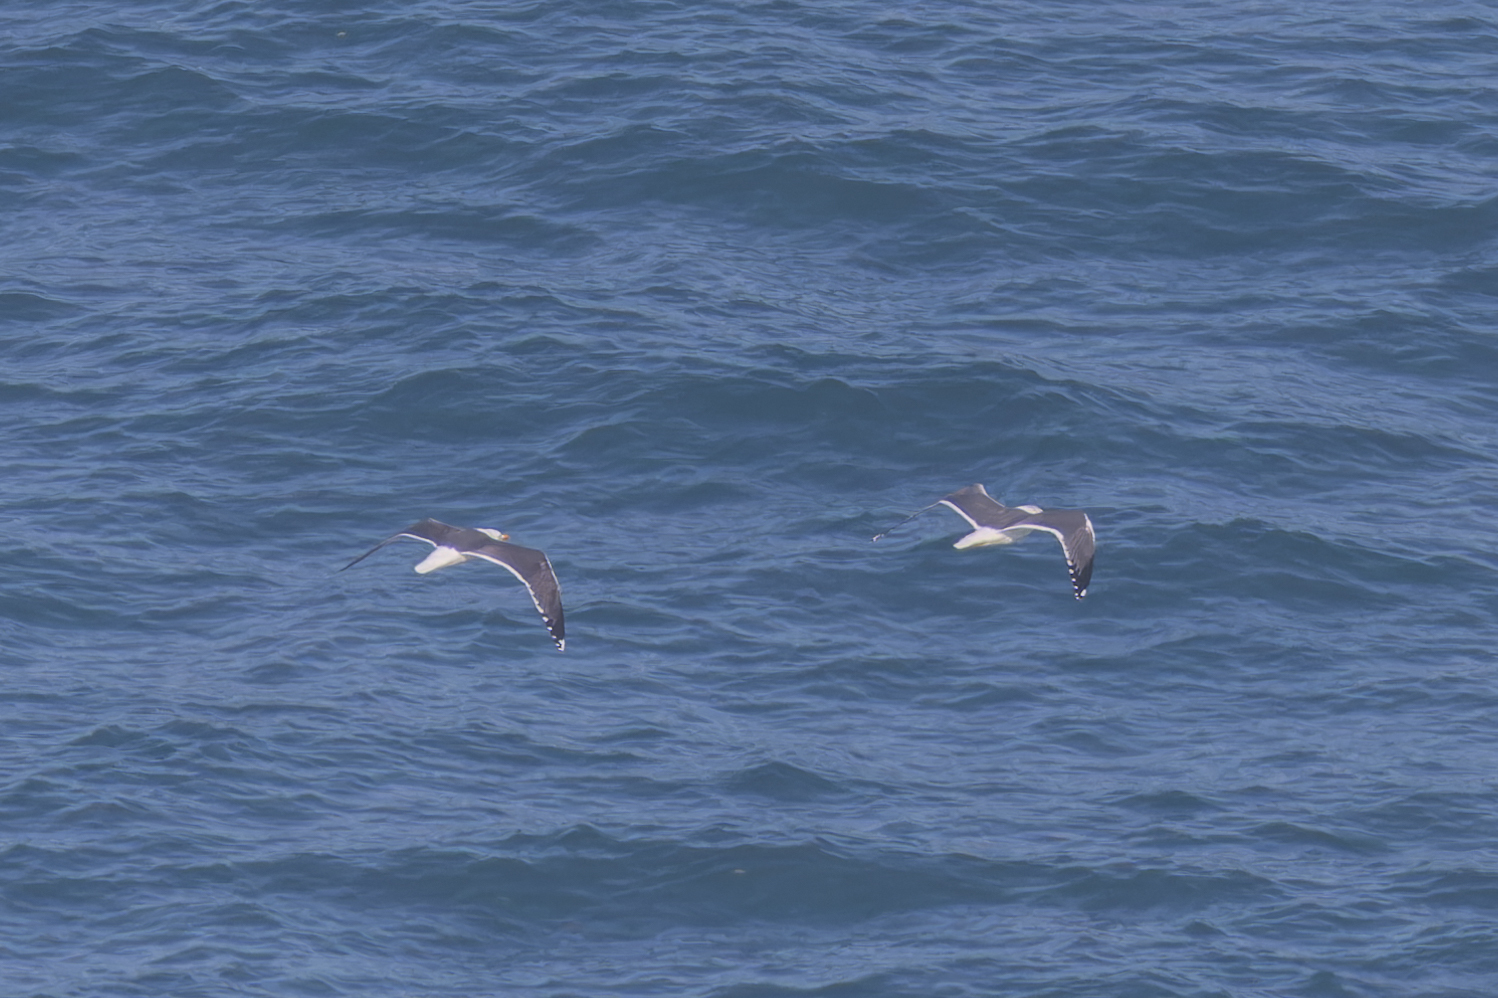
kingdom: Animalia
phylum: Chordata
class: Aves
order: Charadriiformes
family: Laridae
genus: Larus
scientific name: Larus fuscus
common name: Lesser black-backed gull
